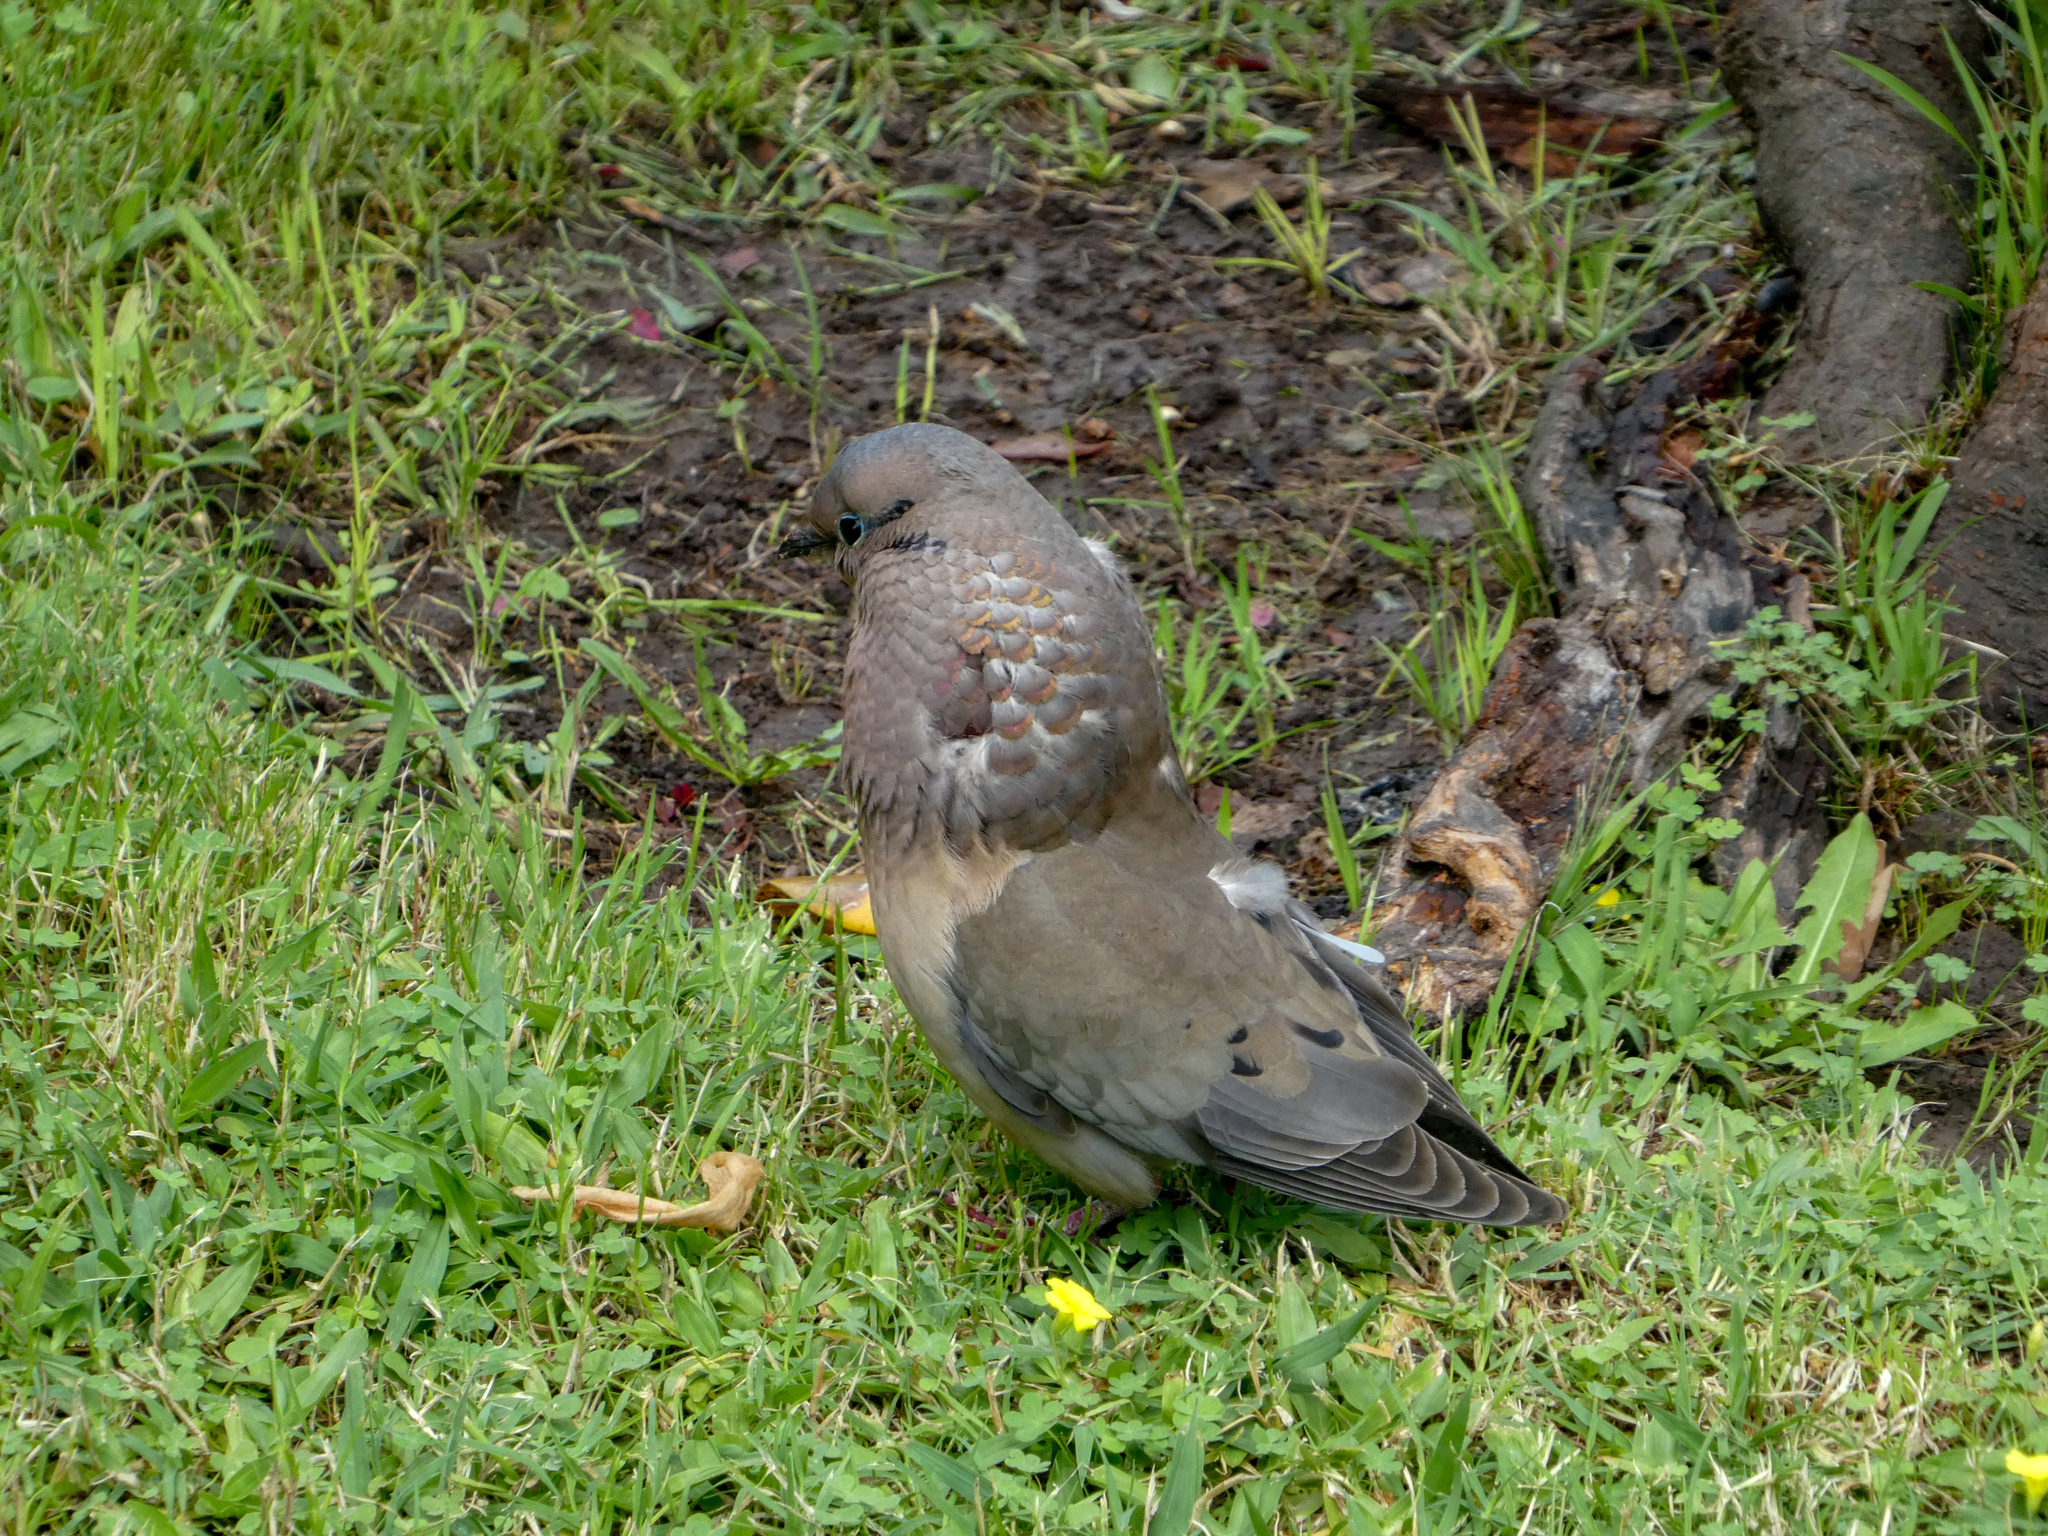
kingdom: Animalia
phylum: Chordata
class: Aves
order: Columbiformes
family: Columbidae
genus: Zenaida
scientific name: Zenaida auriculata
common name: Eared dove
